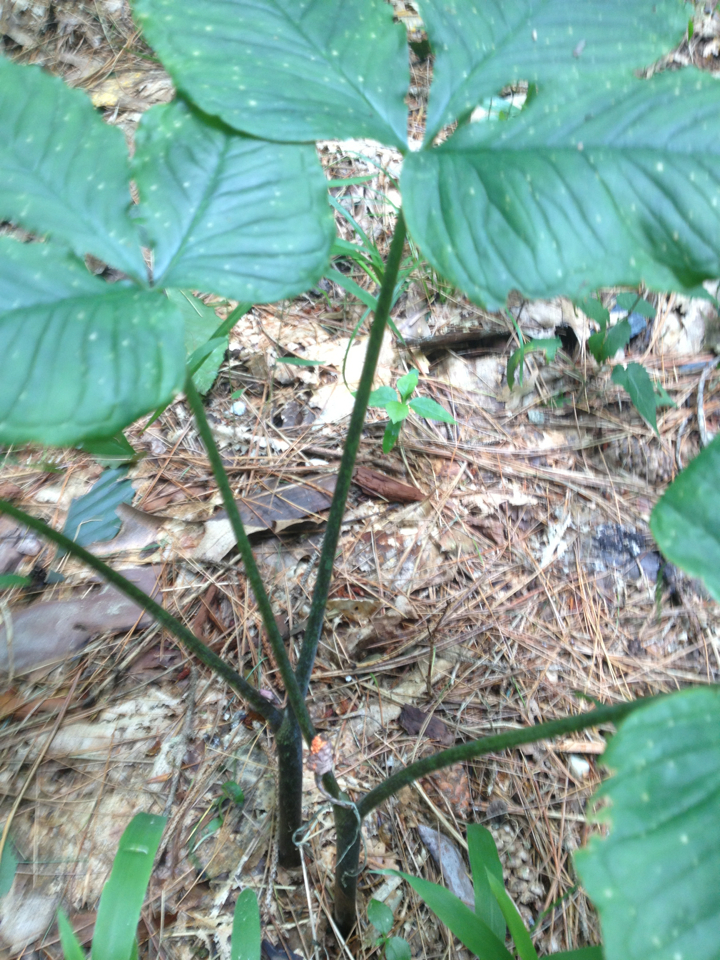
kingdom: Plantae
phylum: Tracheophyta
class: Liliopsida
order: Alismatales
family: Araceae
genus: Arisaema
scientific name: Arisaema triphyllum
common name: Jack-in-the-pulpit
